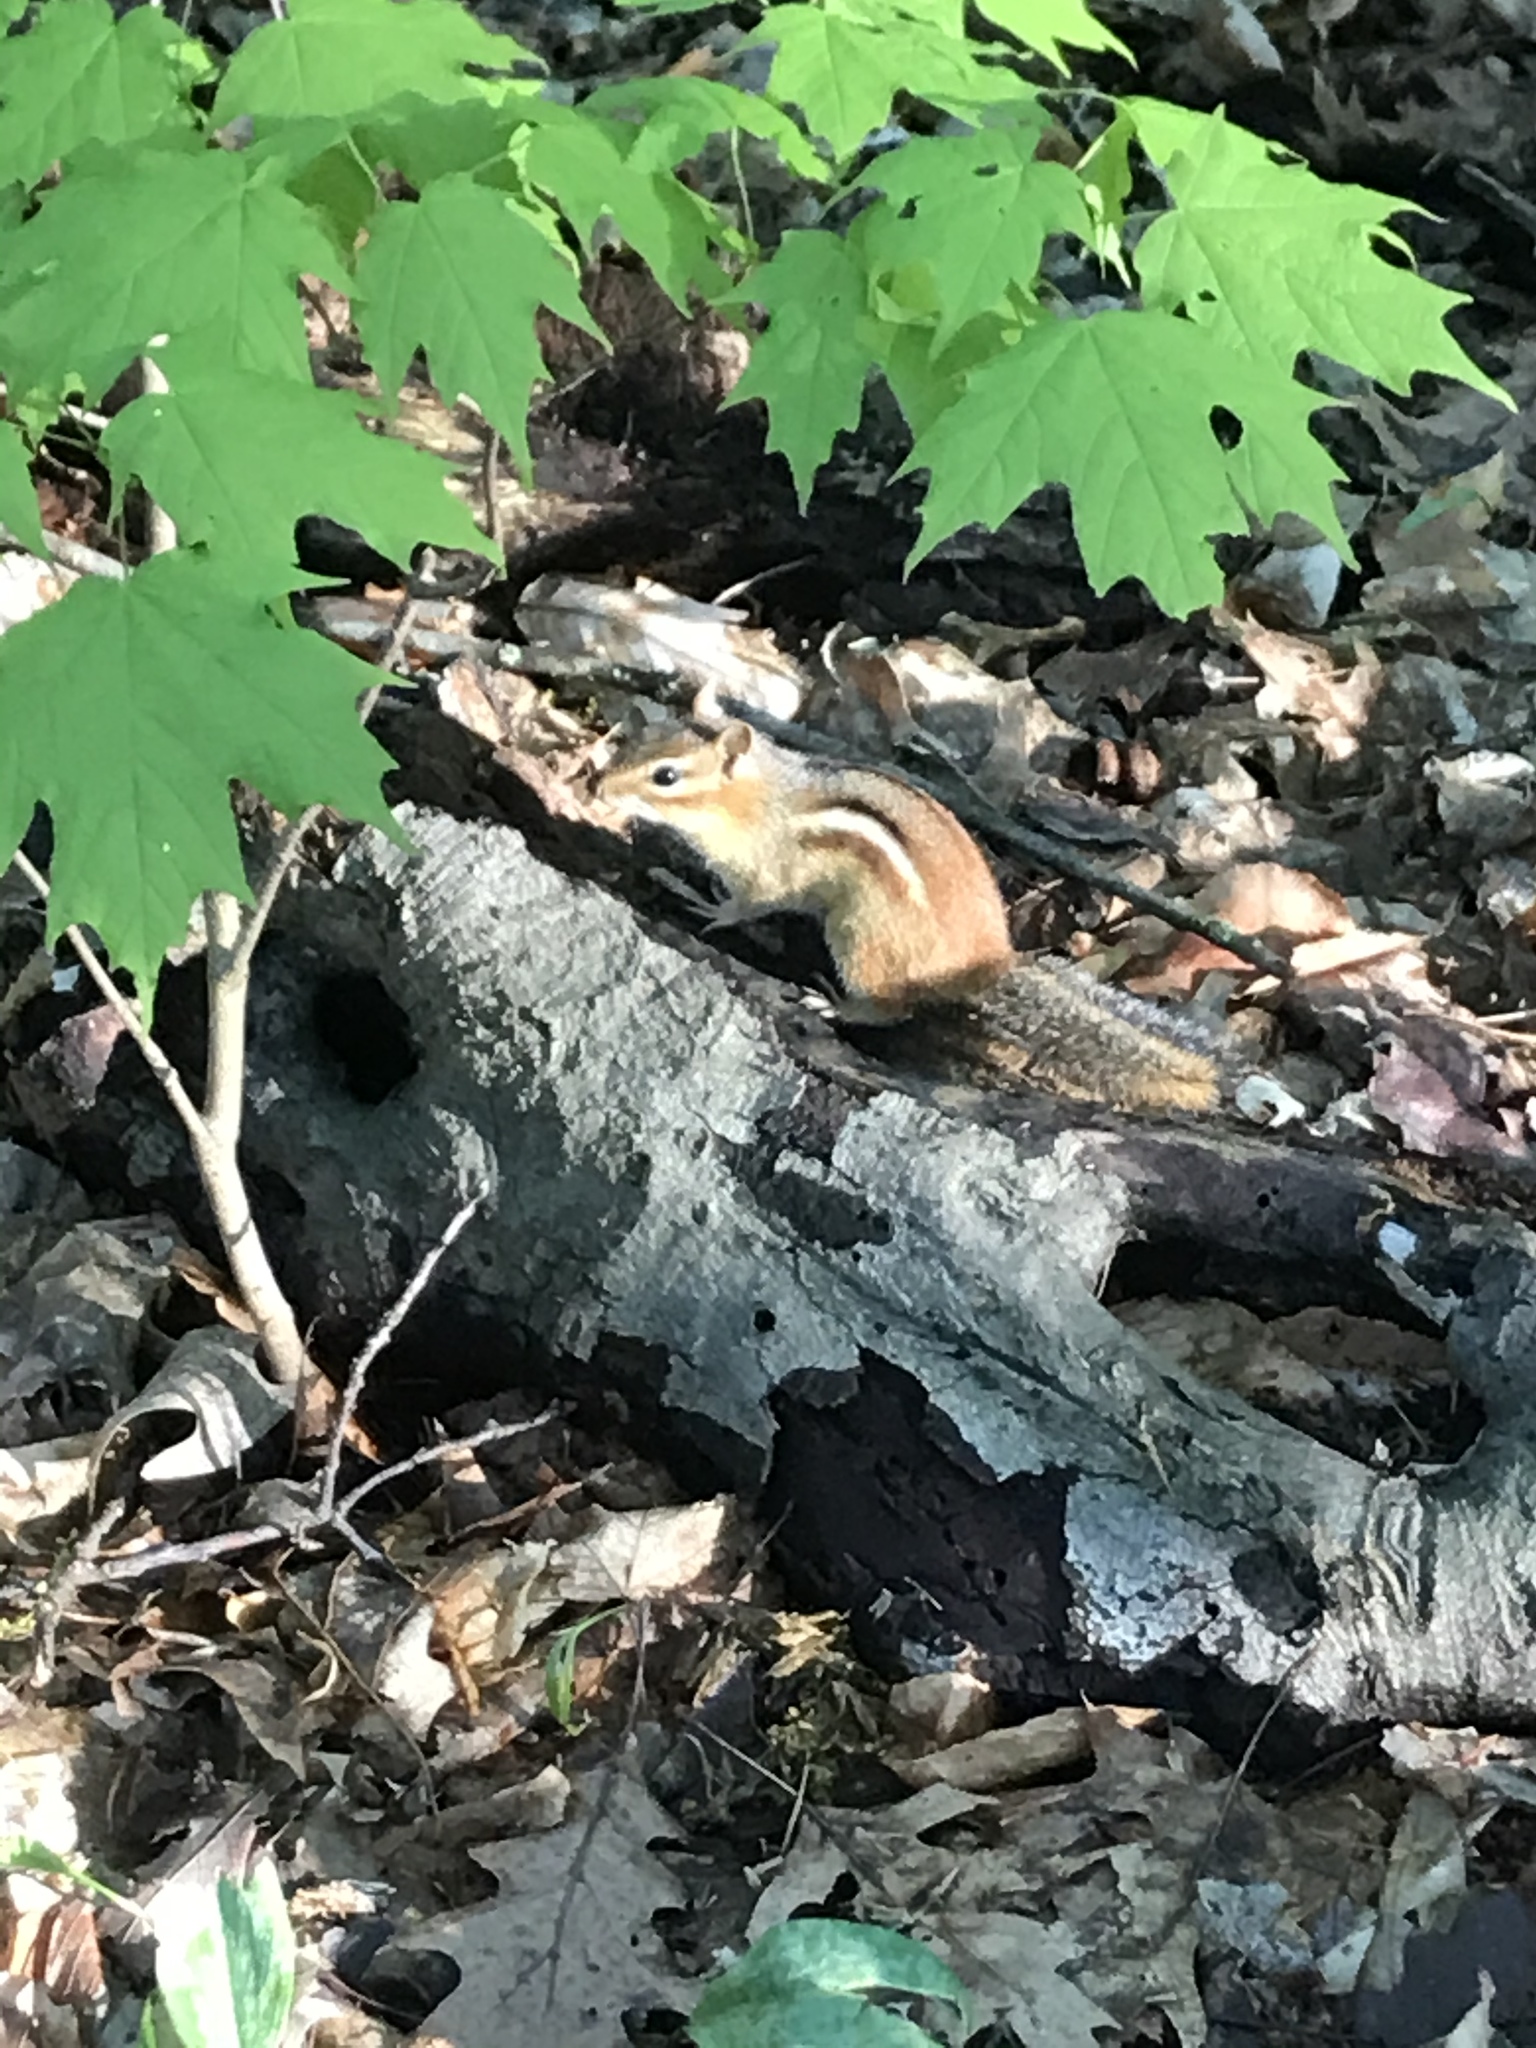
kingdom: Animalia
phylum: Chordata
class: Mammalia
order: Rodentia
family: Sciuridae
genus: Tamias
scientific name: Tamias striatus
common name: Eastern chipmunk
